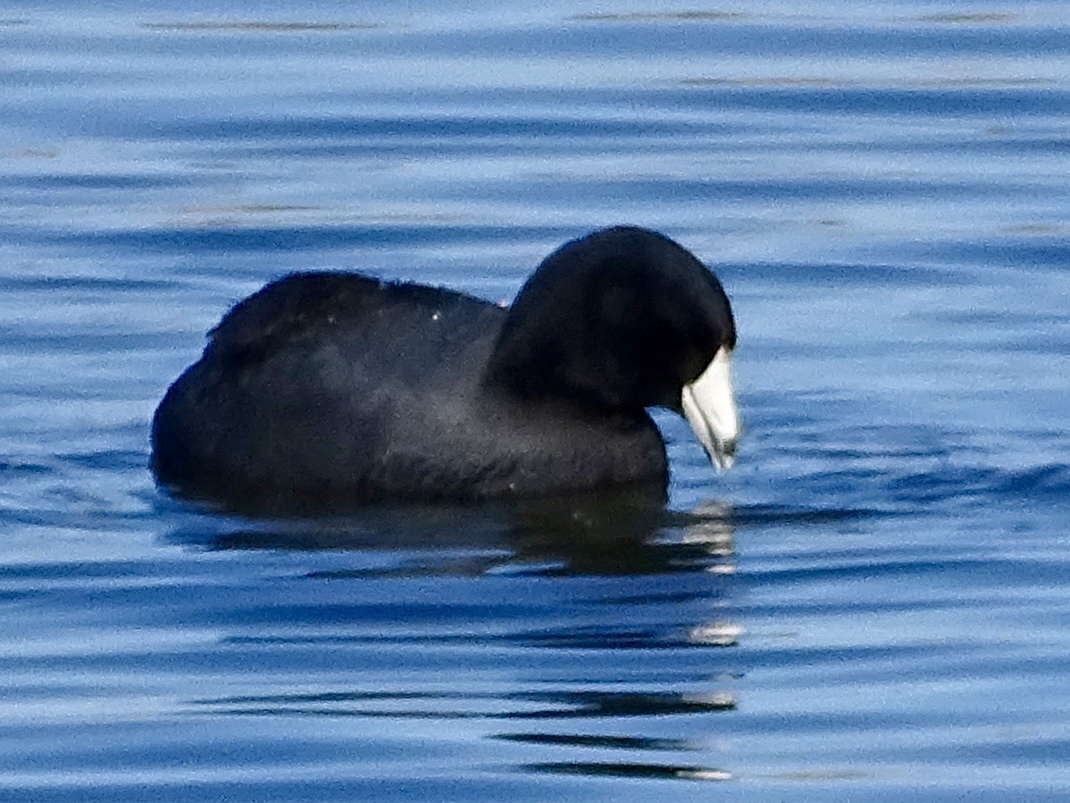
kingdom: Animalia
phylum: Chordata
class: Aves
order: Gruiformes
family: Rallidae
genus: Fulica
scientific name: Fulica americana
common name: American coot
